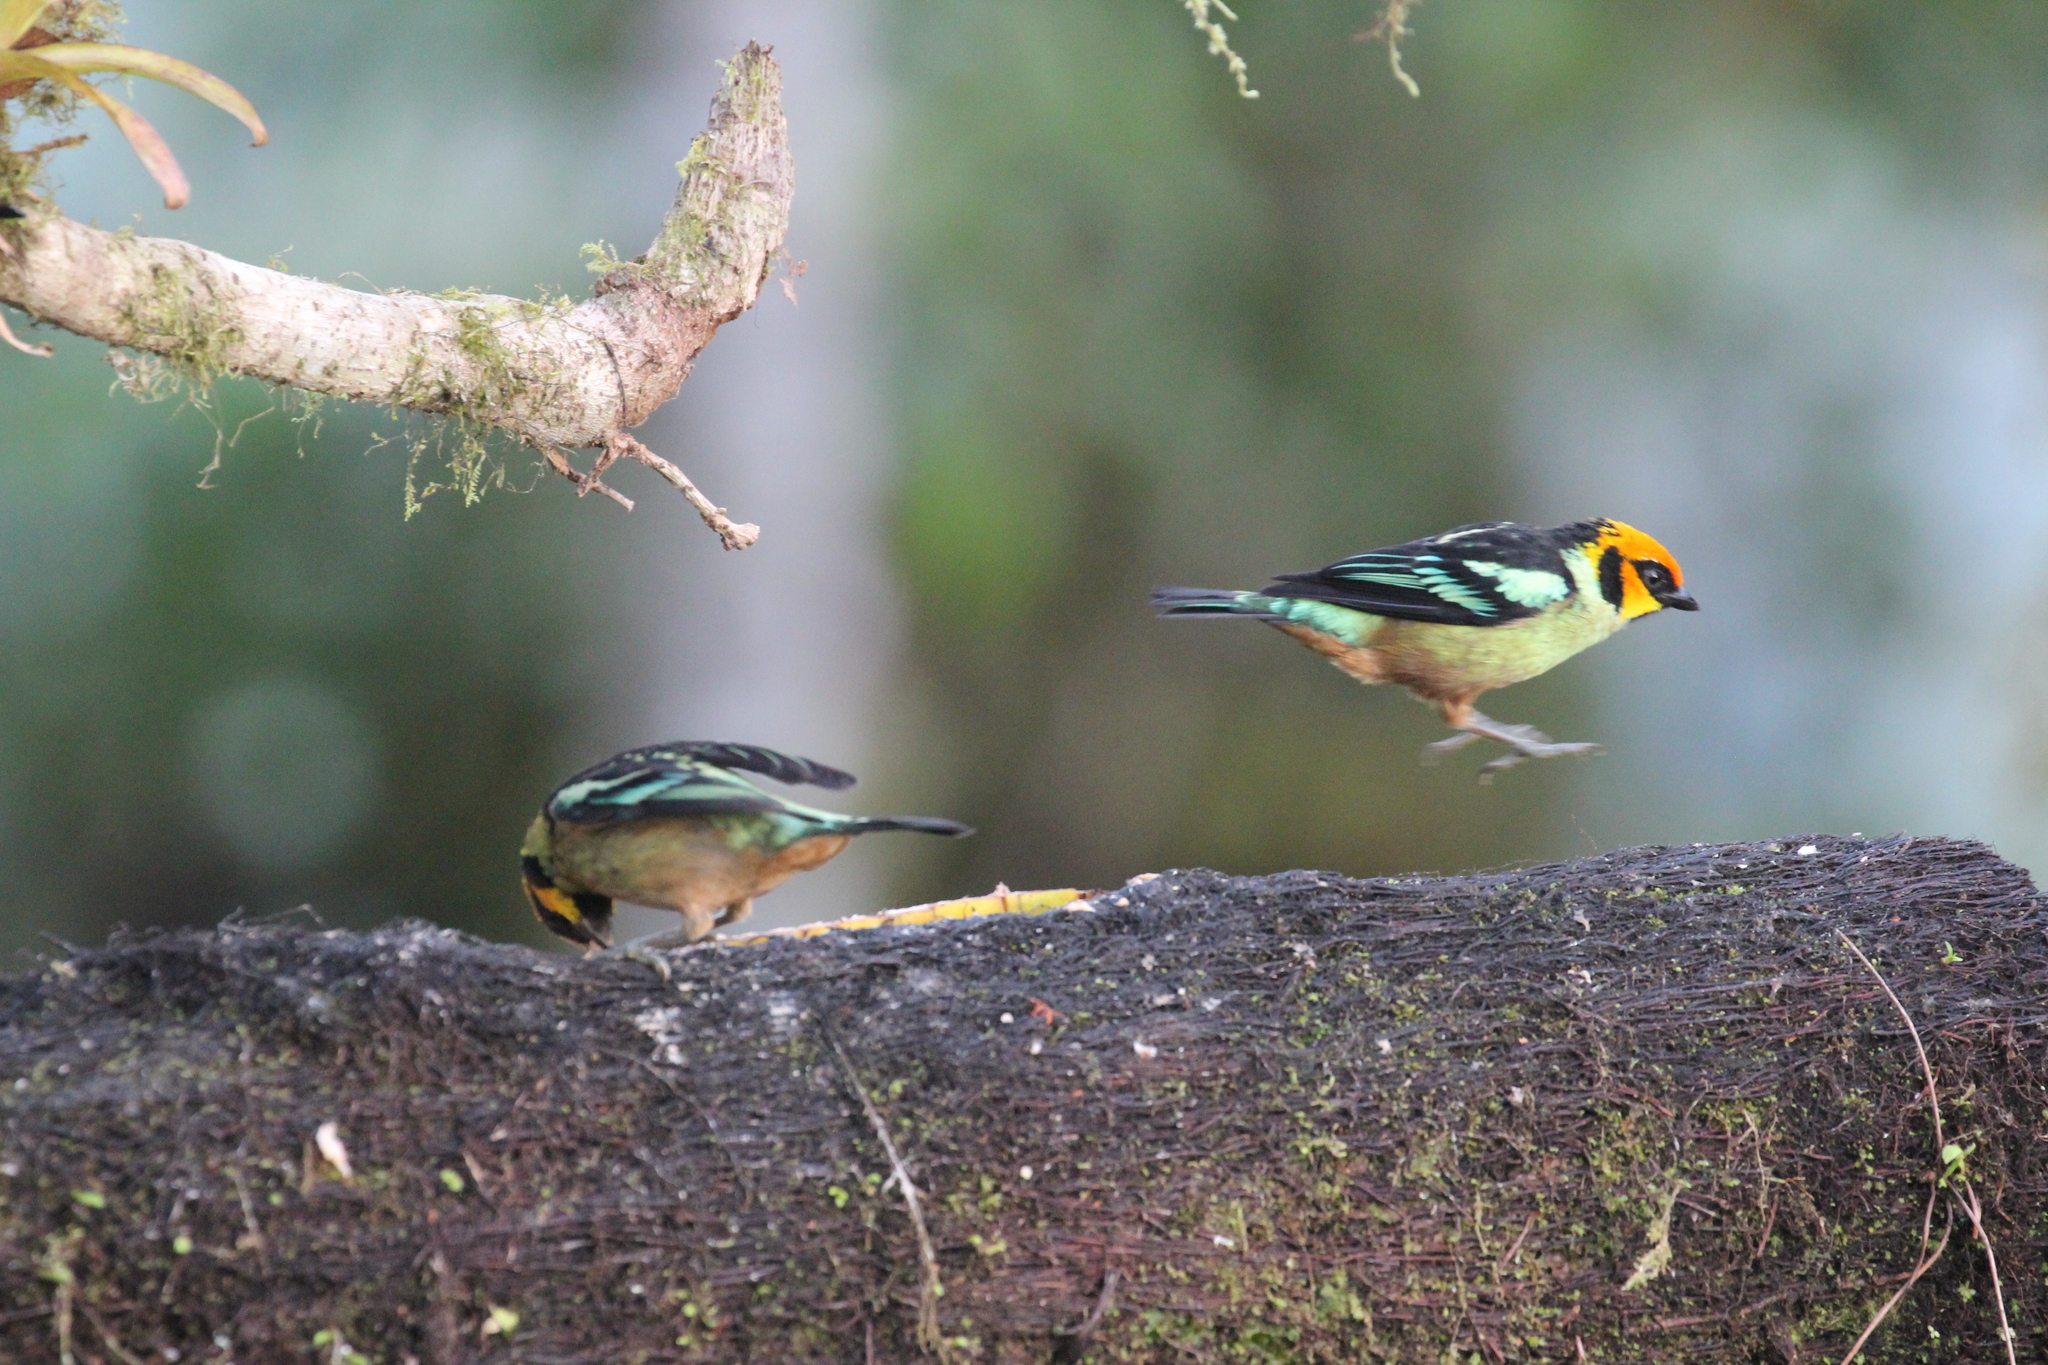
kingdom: Animalia
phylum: Chordata
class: Aves
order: Passeriformes
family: Thraupidae
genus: Tangara
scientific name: Tangara parzudakii
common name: Flame-faced tanager
